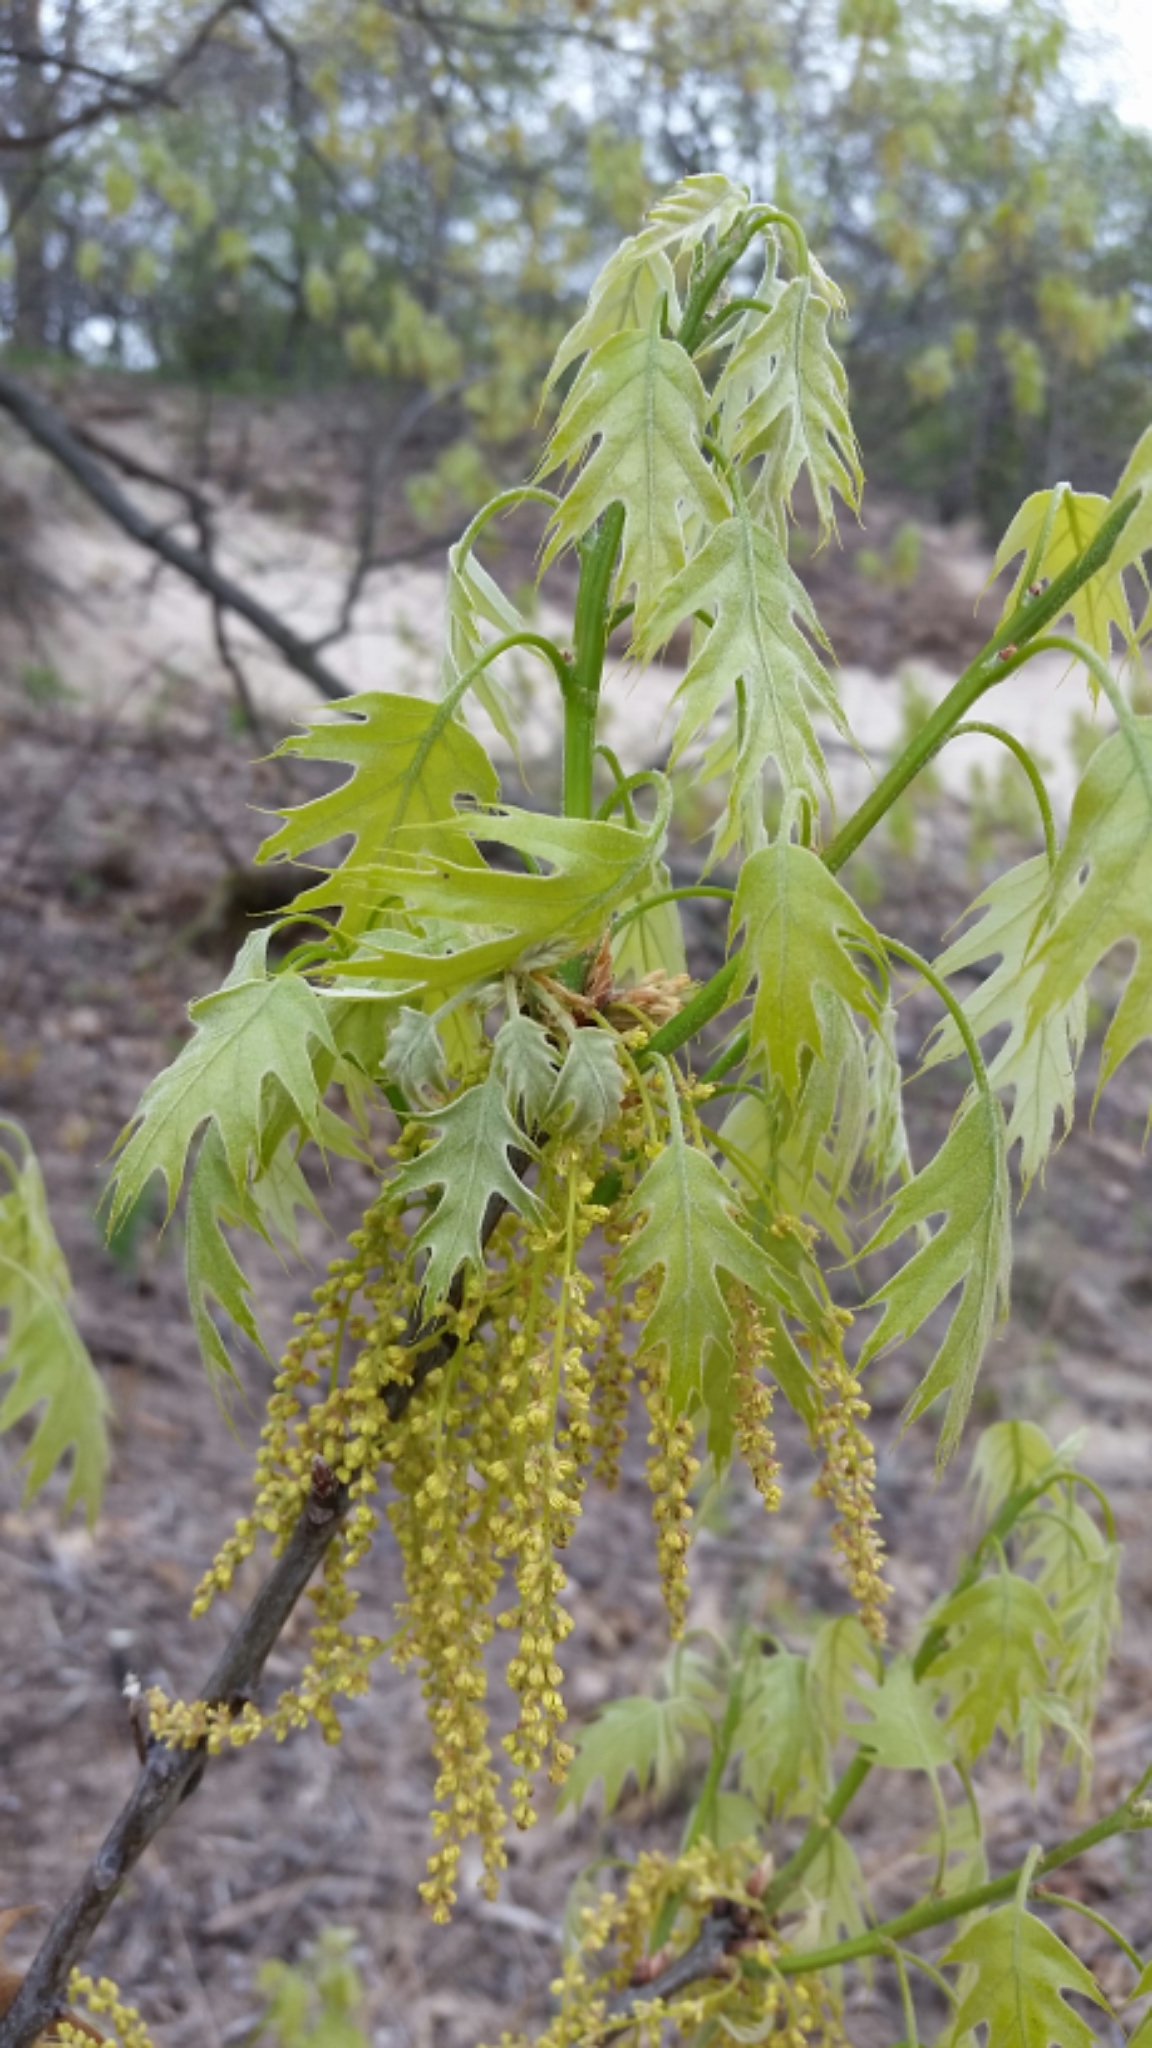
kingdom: Plantae
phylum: Tracheophyta
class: Magnoliopsida
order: Fagales
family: Fagaceae
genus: Quercus
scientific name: Quercus rubra
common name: Red oak
